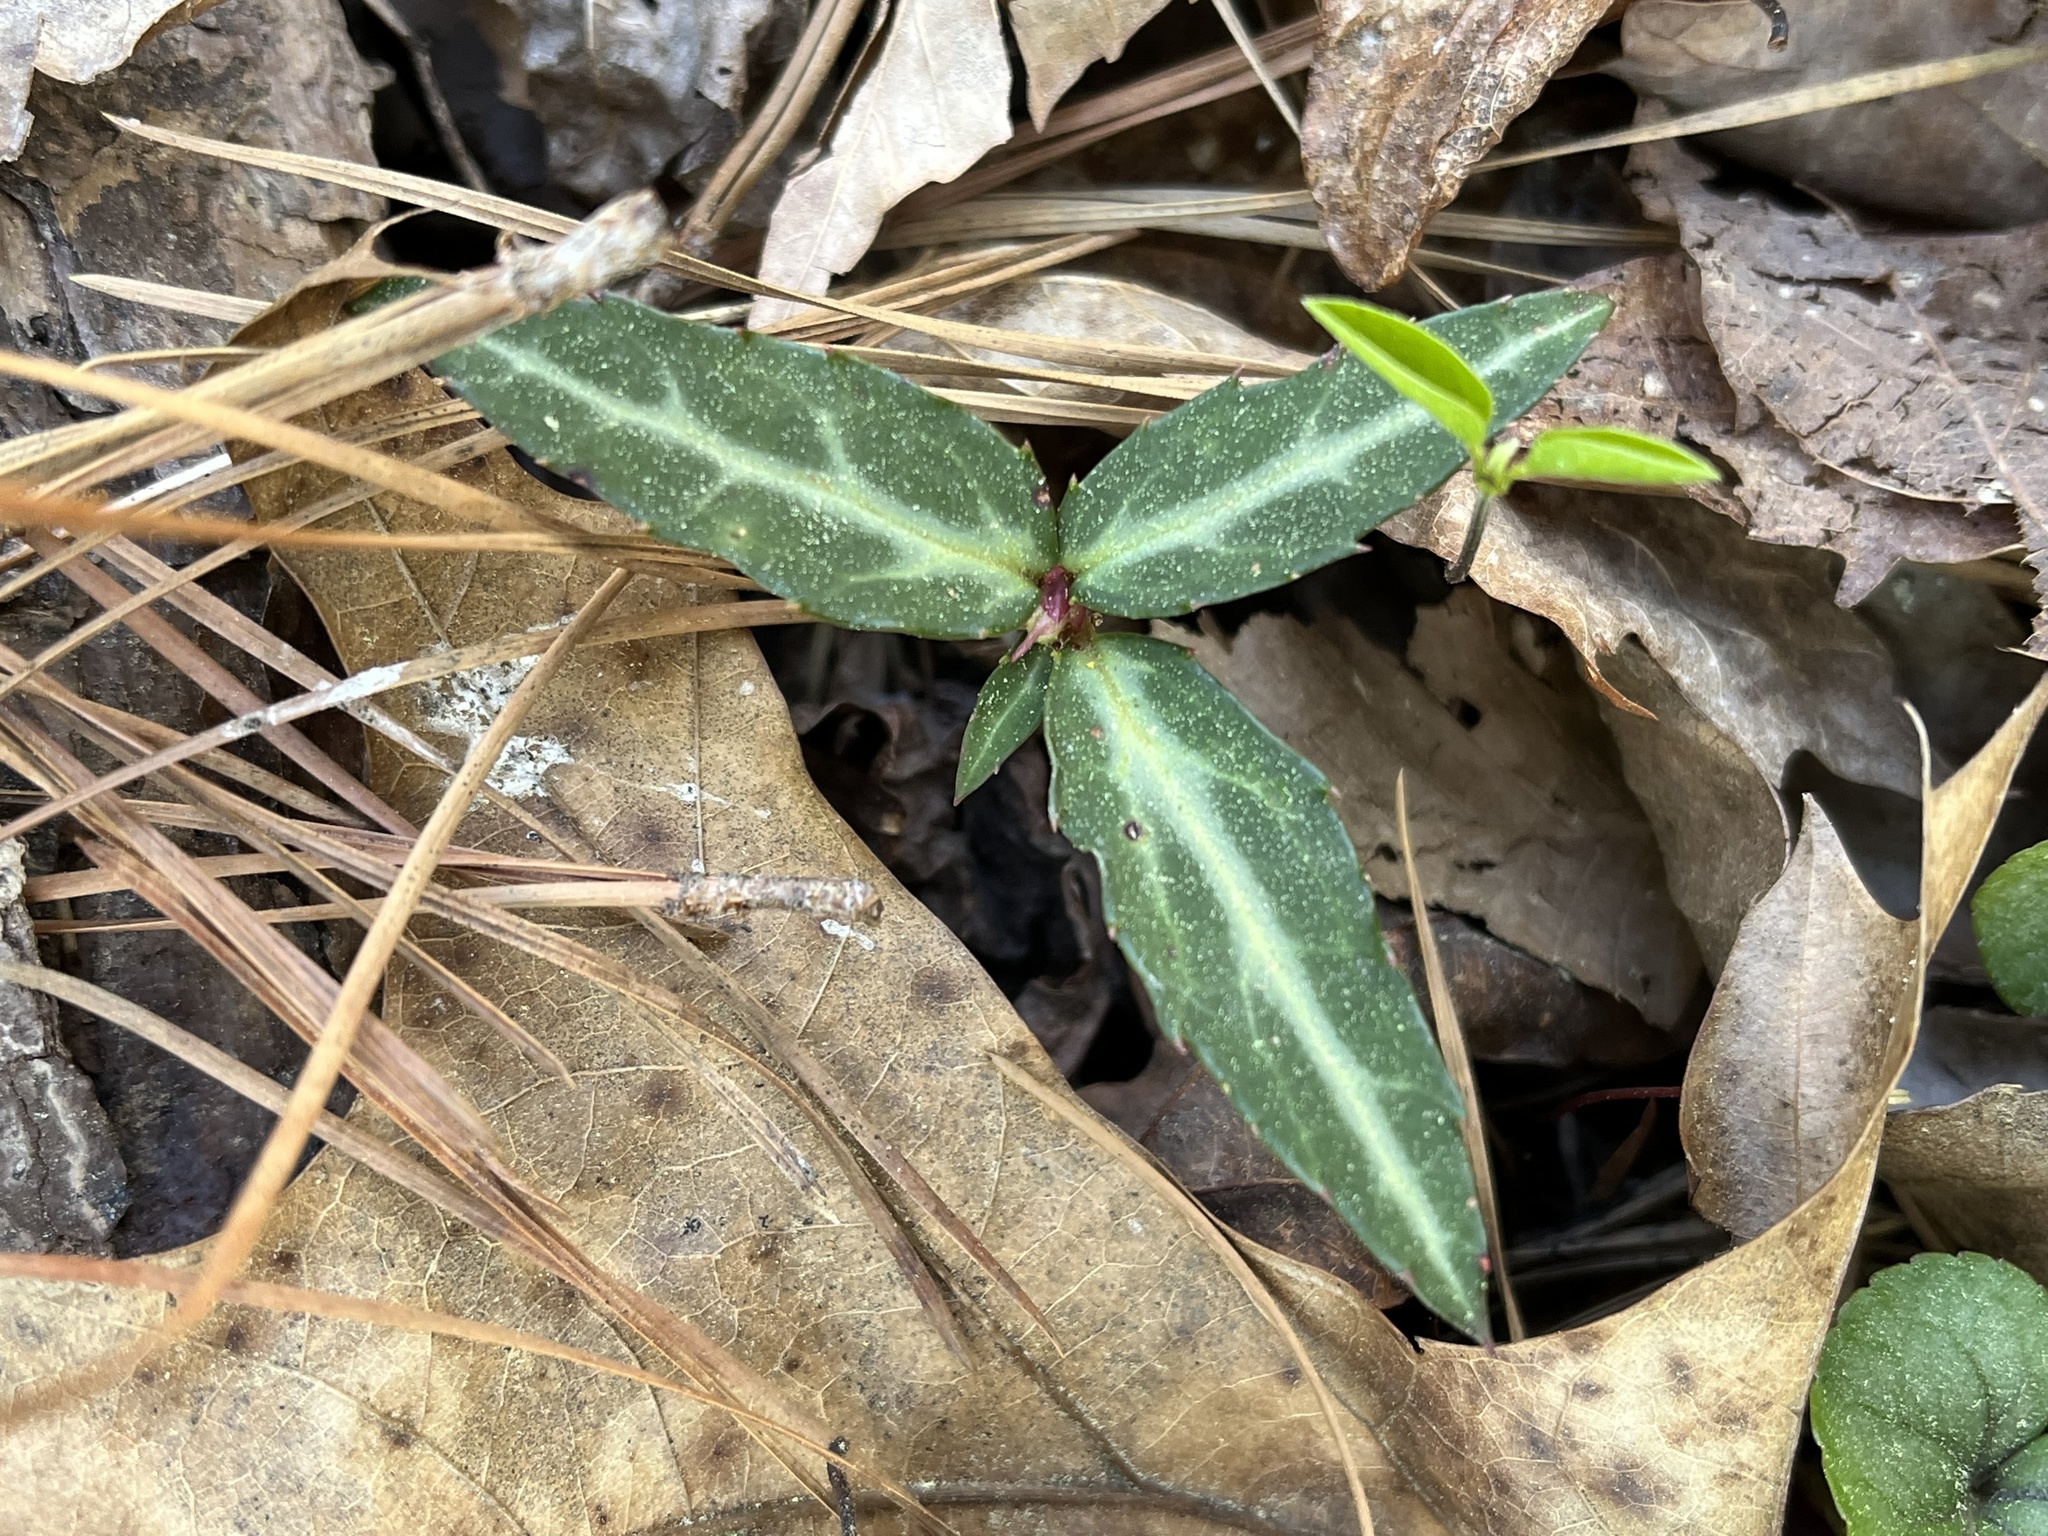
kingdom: Plantae
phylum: Tracheophyta
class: Magnoliopsida
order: Ericales
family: Ericaceae
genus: Chimaphila
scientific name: Chimaphila maculata
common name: Spotted pipsissewa
